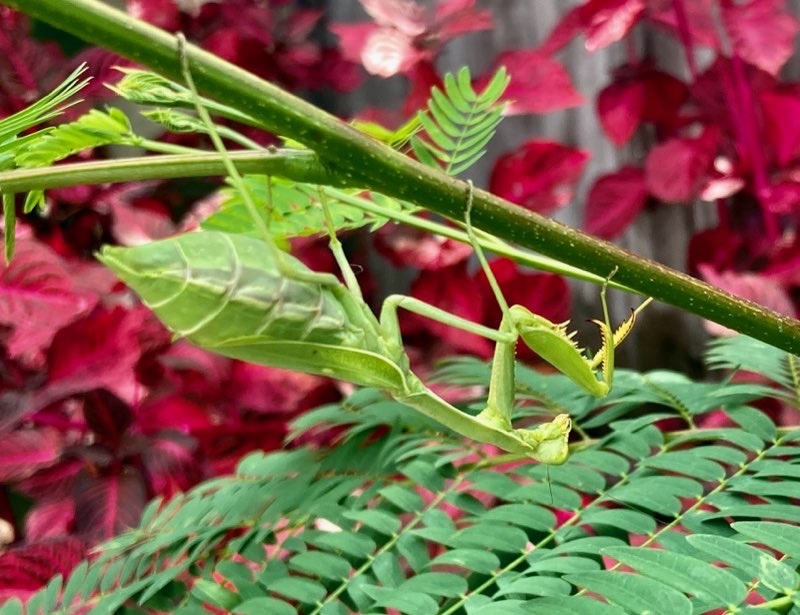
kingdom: Animalia
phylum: Arthropoda
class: Insecta
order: Mantodea
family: Mantidae
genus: Stagmomantis
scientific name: Stagmomantis limbata
